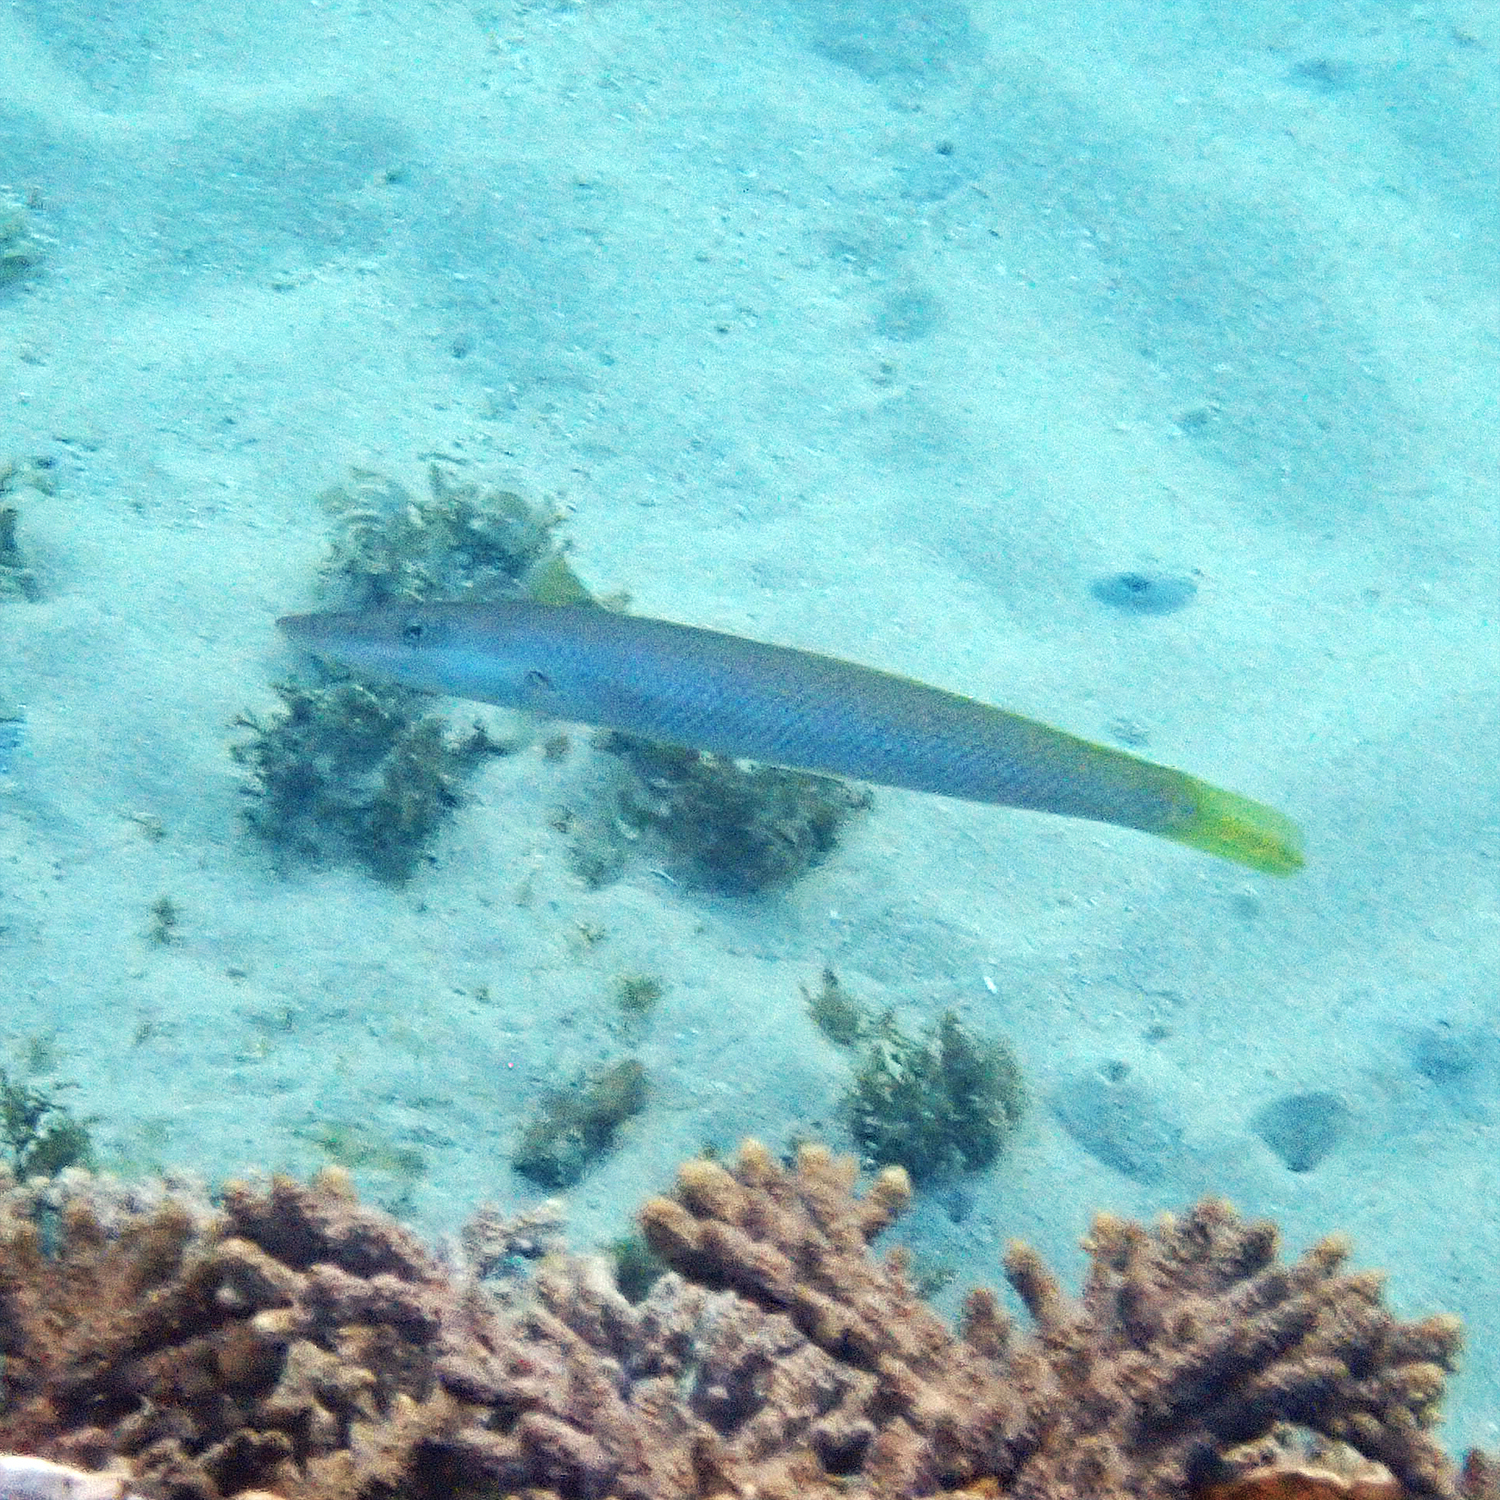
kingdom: Animalia
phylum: Chordata
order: Perciformes
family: Labridae
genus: Cheilio
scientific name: Cheilio inermis
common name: Cigar wrasse
